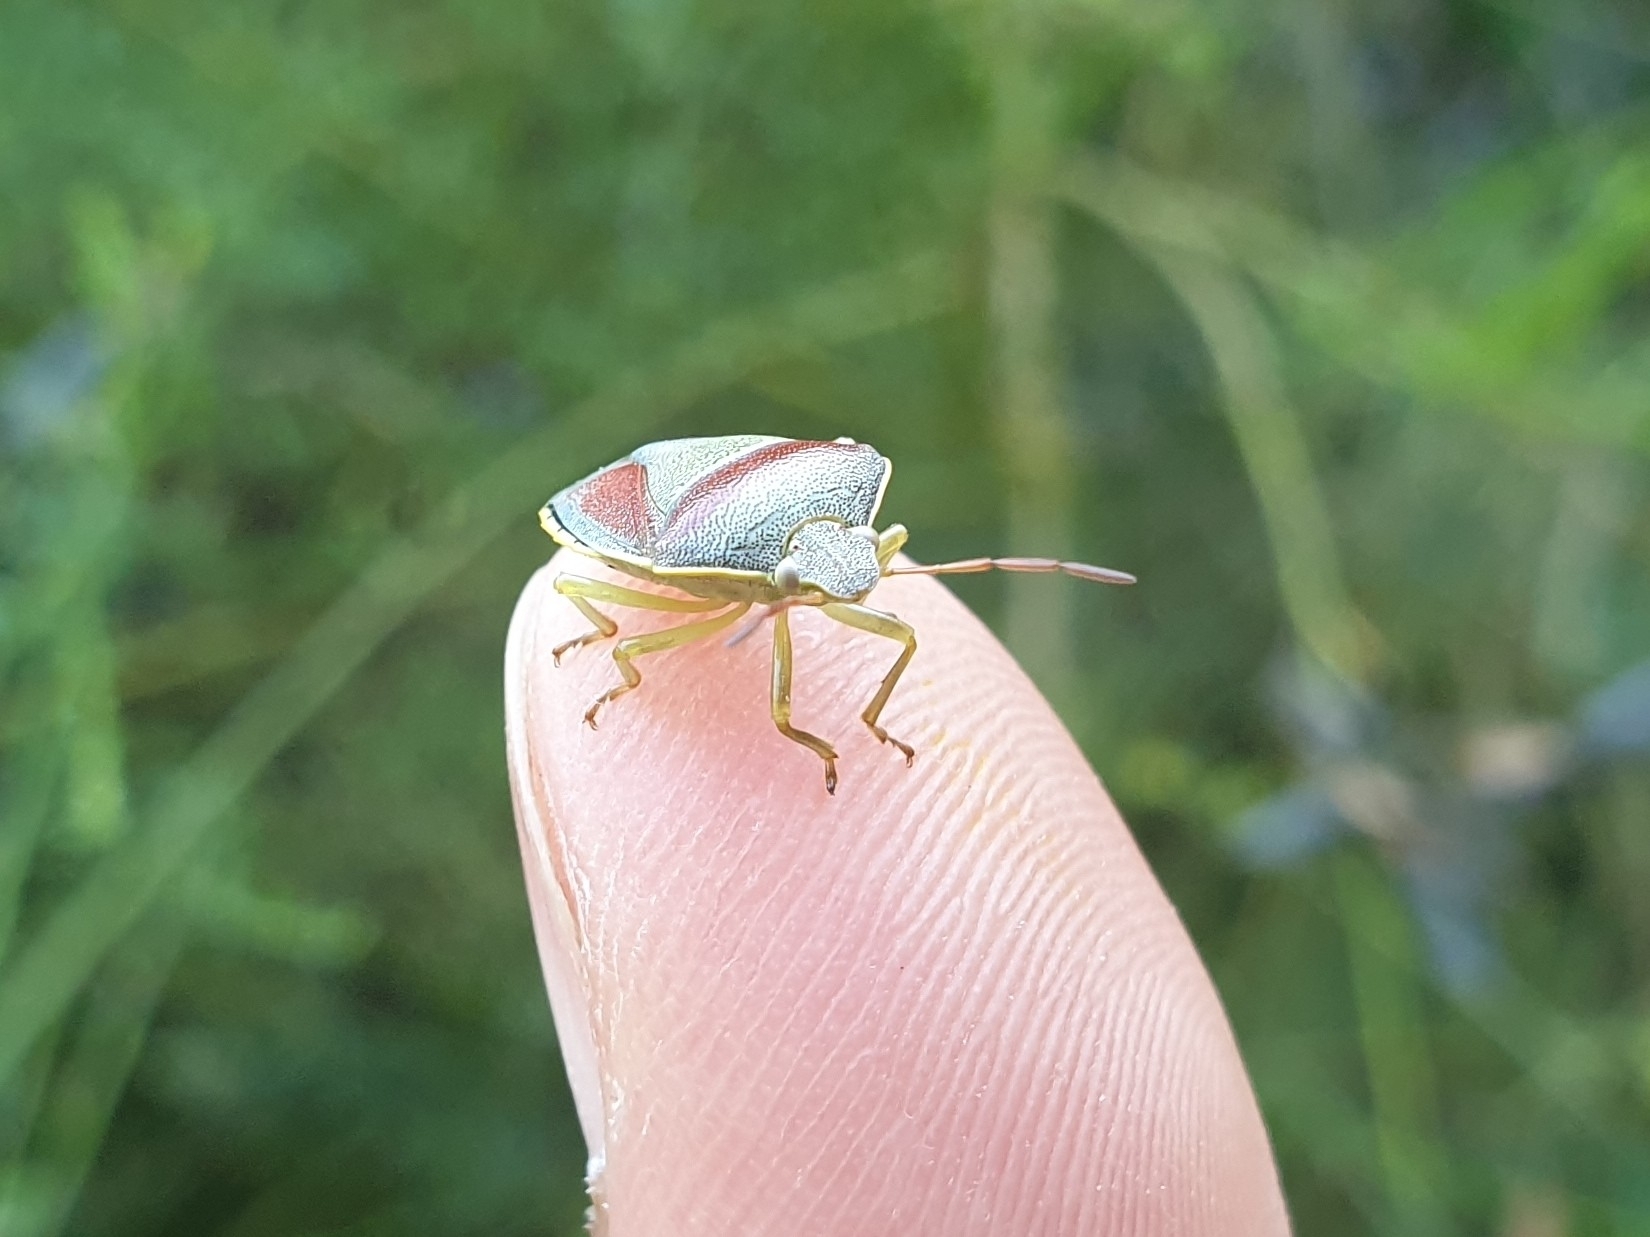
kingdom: Animalia
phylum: Arthropoda
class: Insecta
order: Hemiptera
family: Pentatomidae
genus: Piezodorus
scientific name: Piezodorus lituratus
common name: Stink bug
